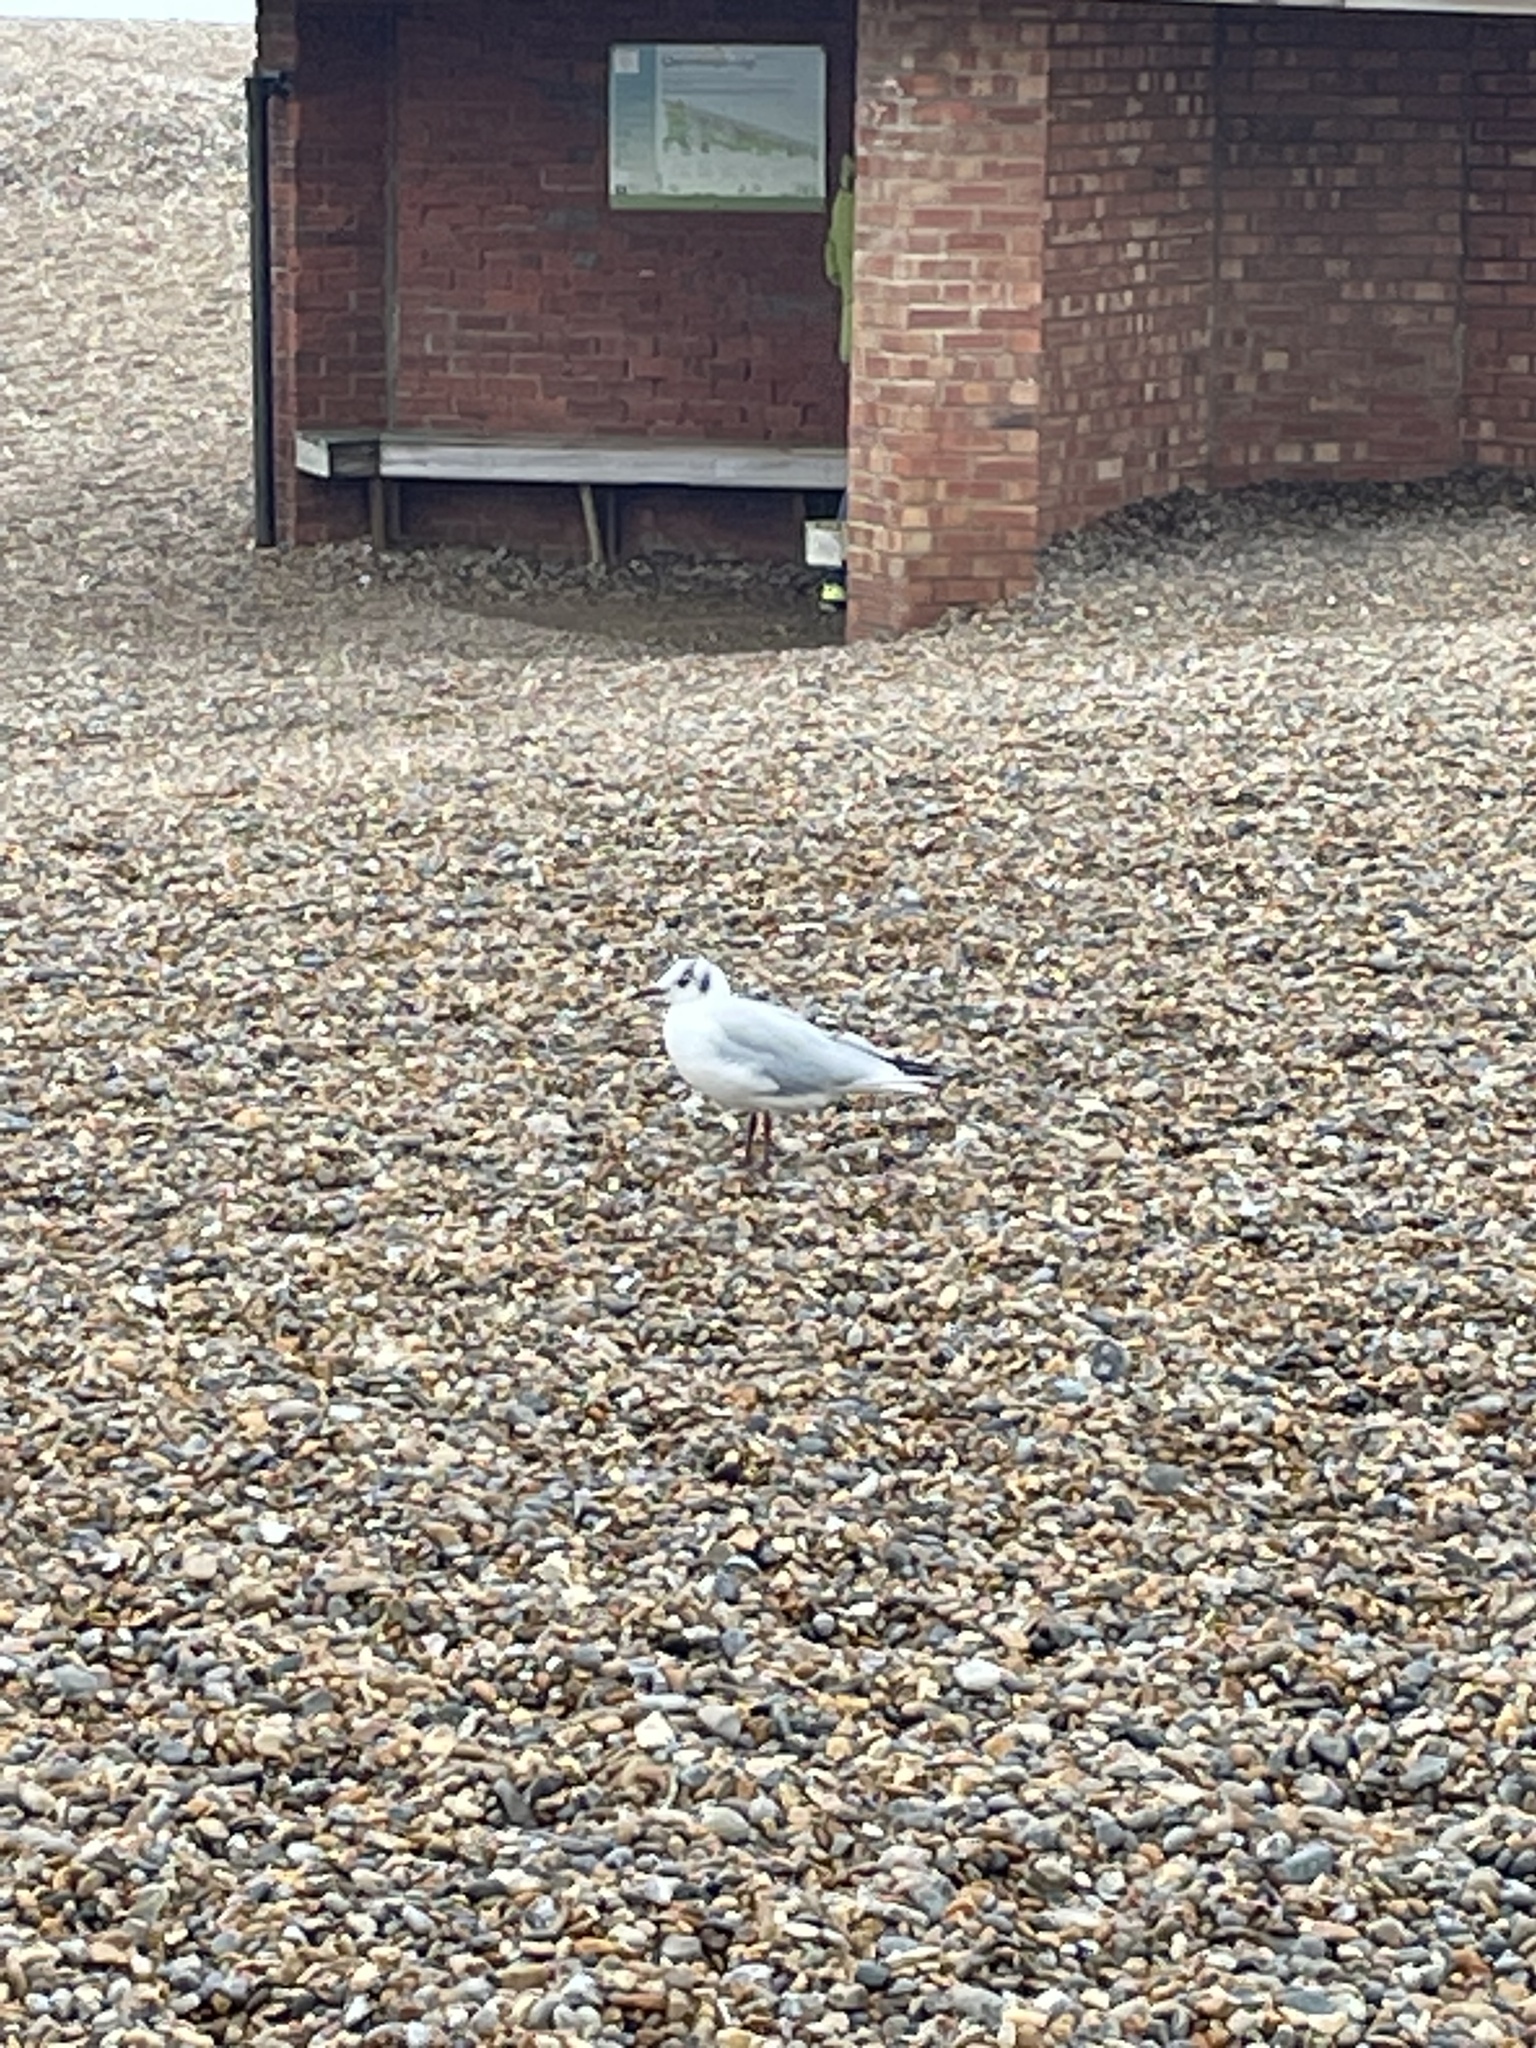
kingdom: Animalia
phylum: Chordata
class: Aves
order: Charadriiformes
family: Laridae
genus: Chroicocephalus
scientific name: Chroicocephalus ridibundus
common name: Black-headed gull
